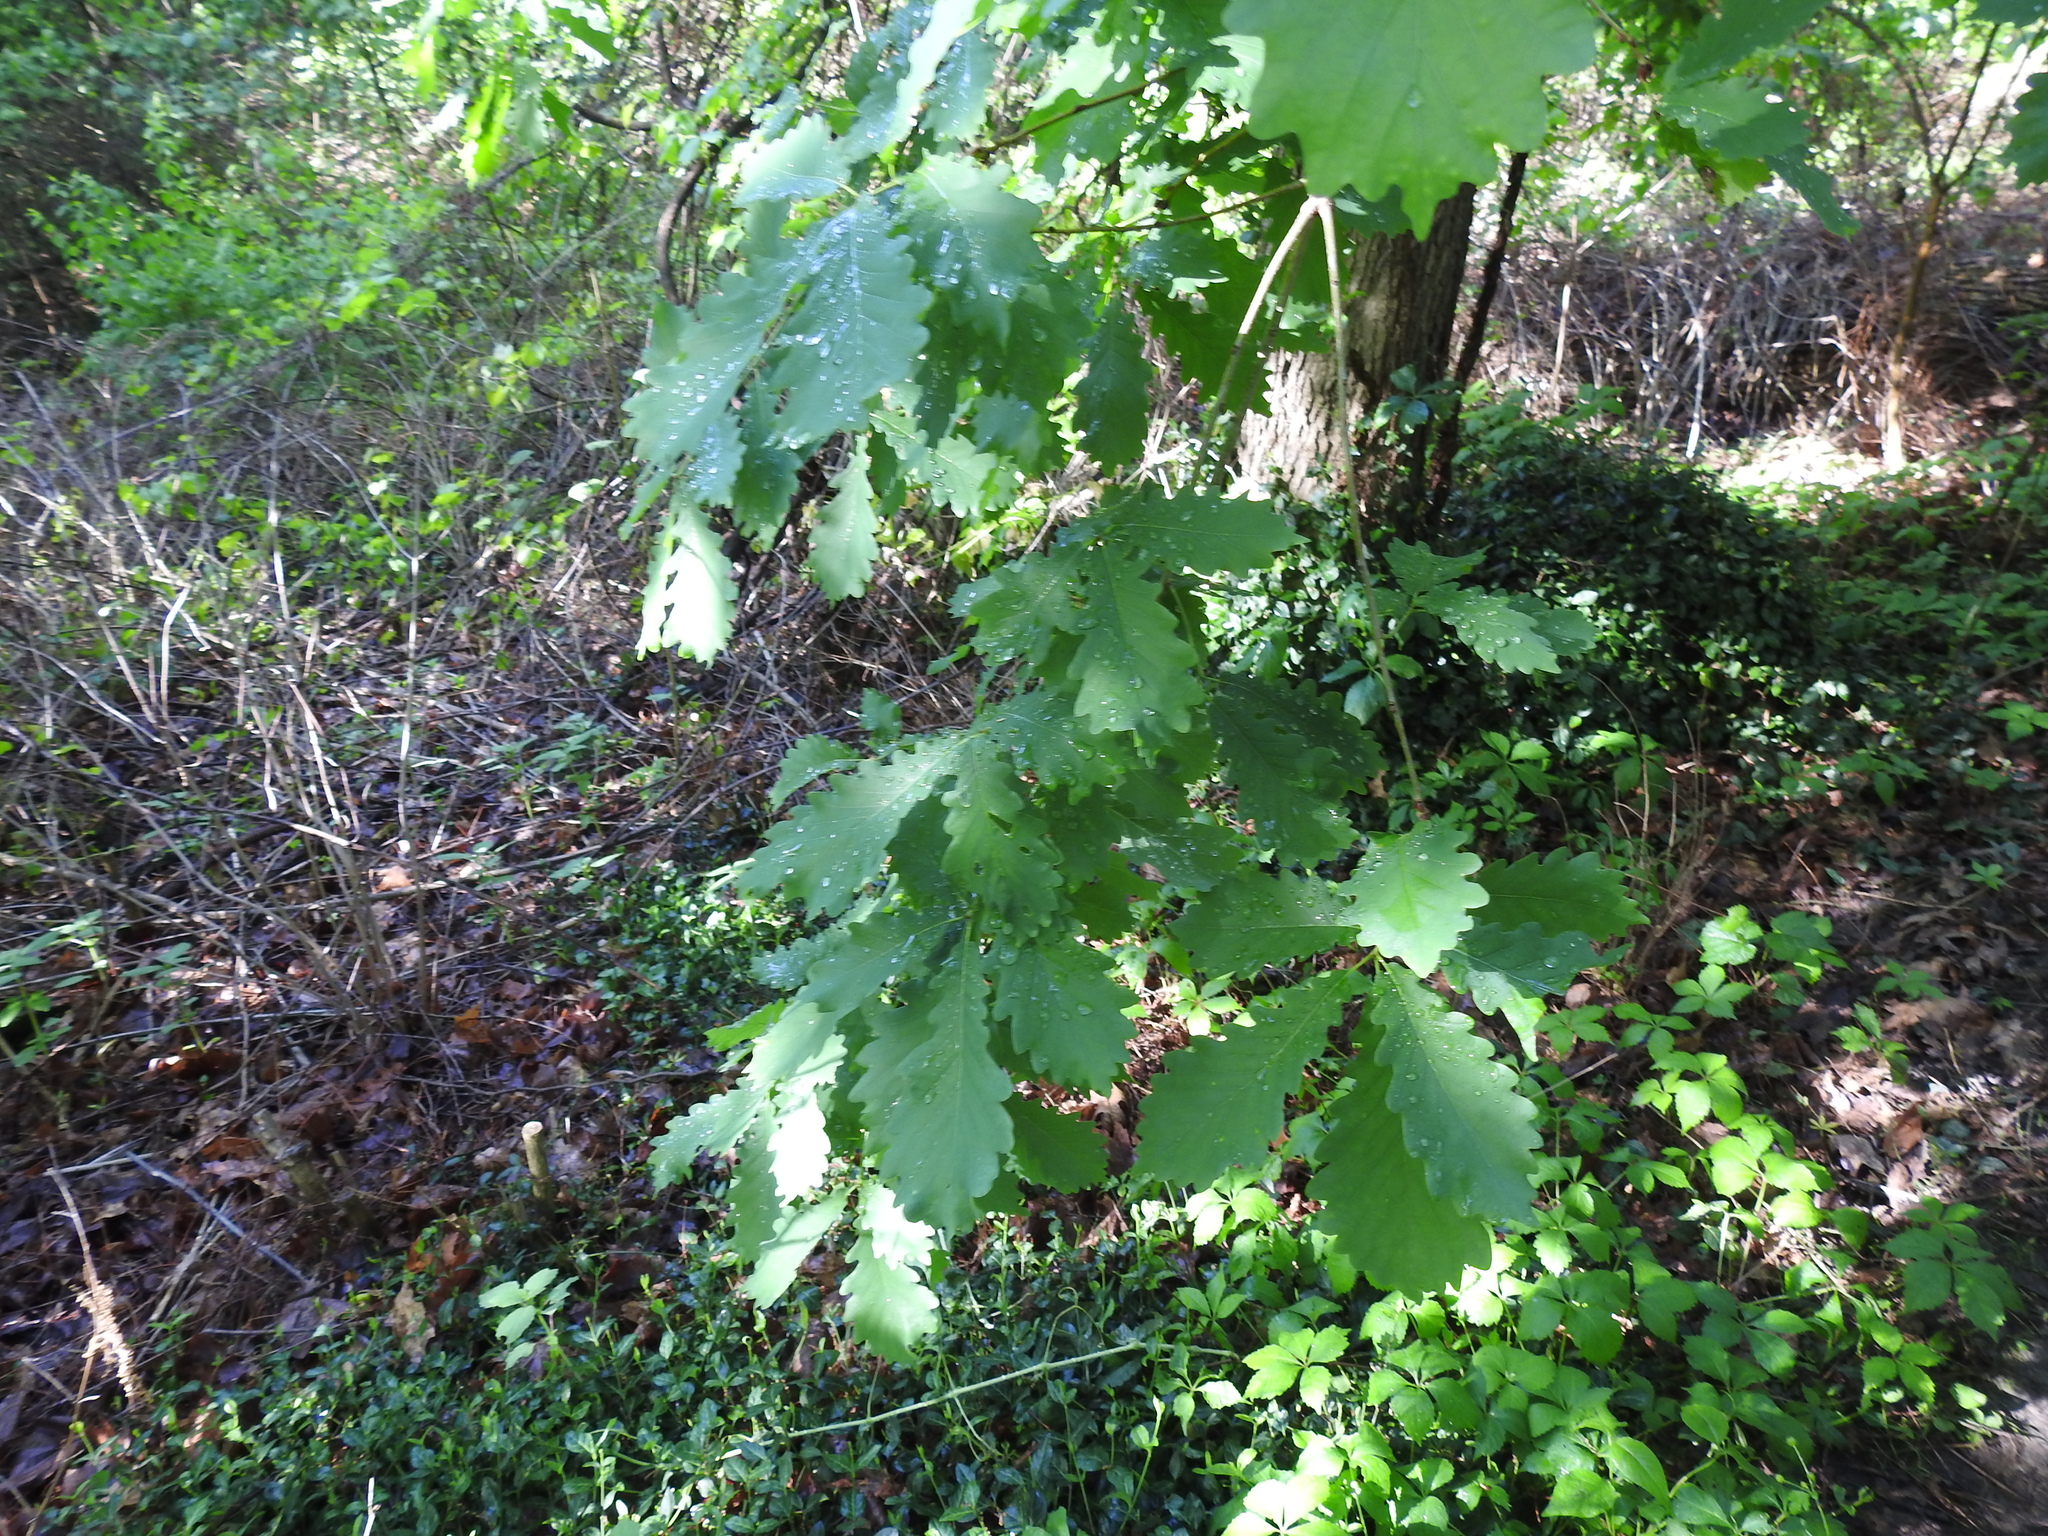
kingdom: Plantae
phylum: Tracheophyta
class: Magnoliopsida
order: Fagales
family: Fagaceae
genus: Quercus
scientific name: Quercus robur
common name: Pedunculate oak
